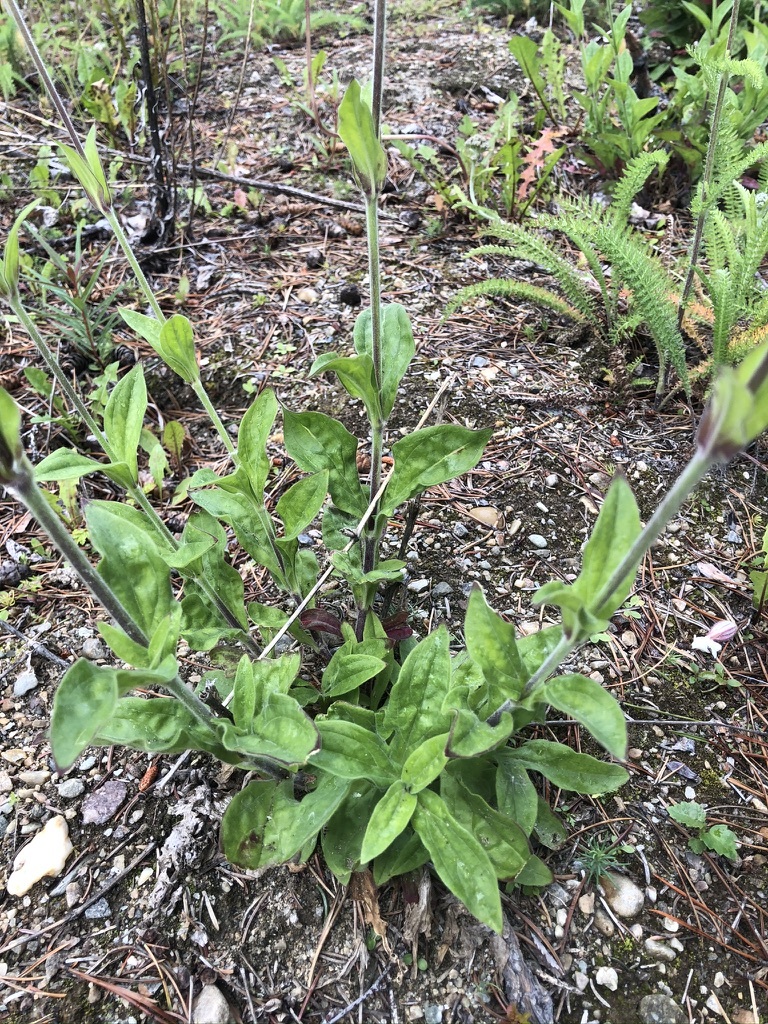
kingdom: Plantae
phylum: Tracheophyta
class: Magnoliopsida
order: Caryophyllales
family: Caryophyllaceae
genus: Silene
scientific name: Silene latifolia
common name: White campion
